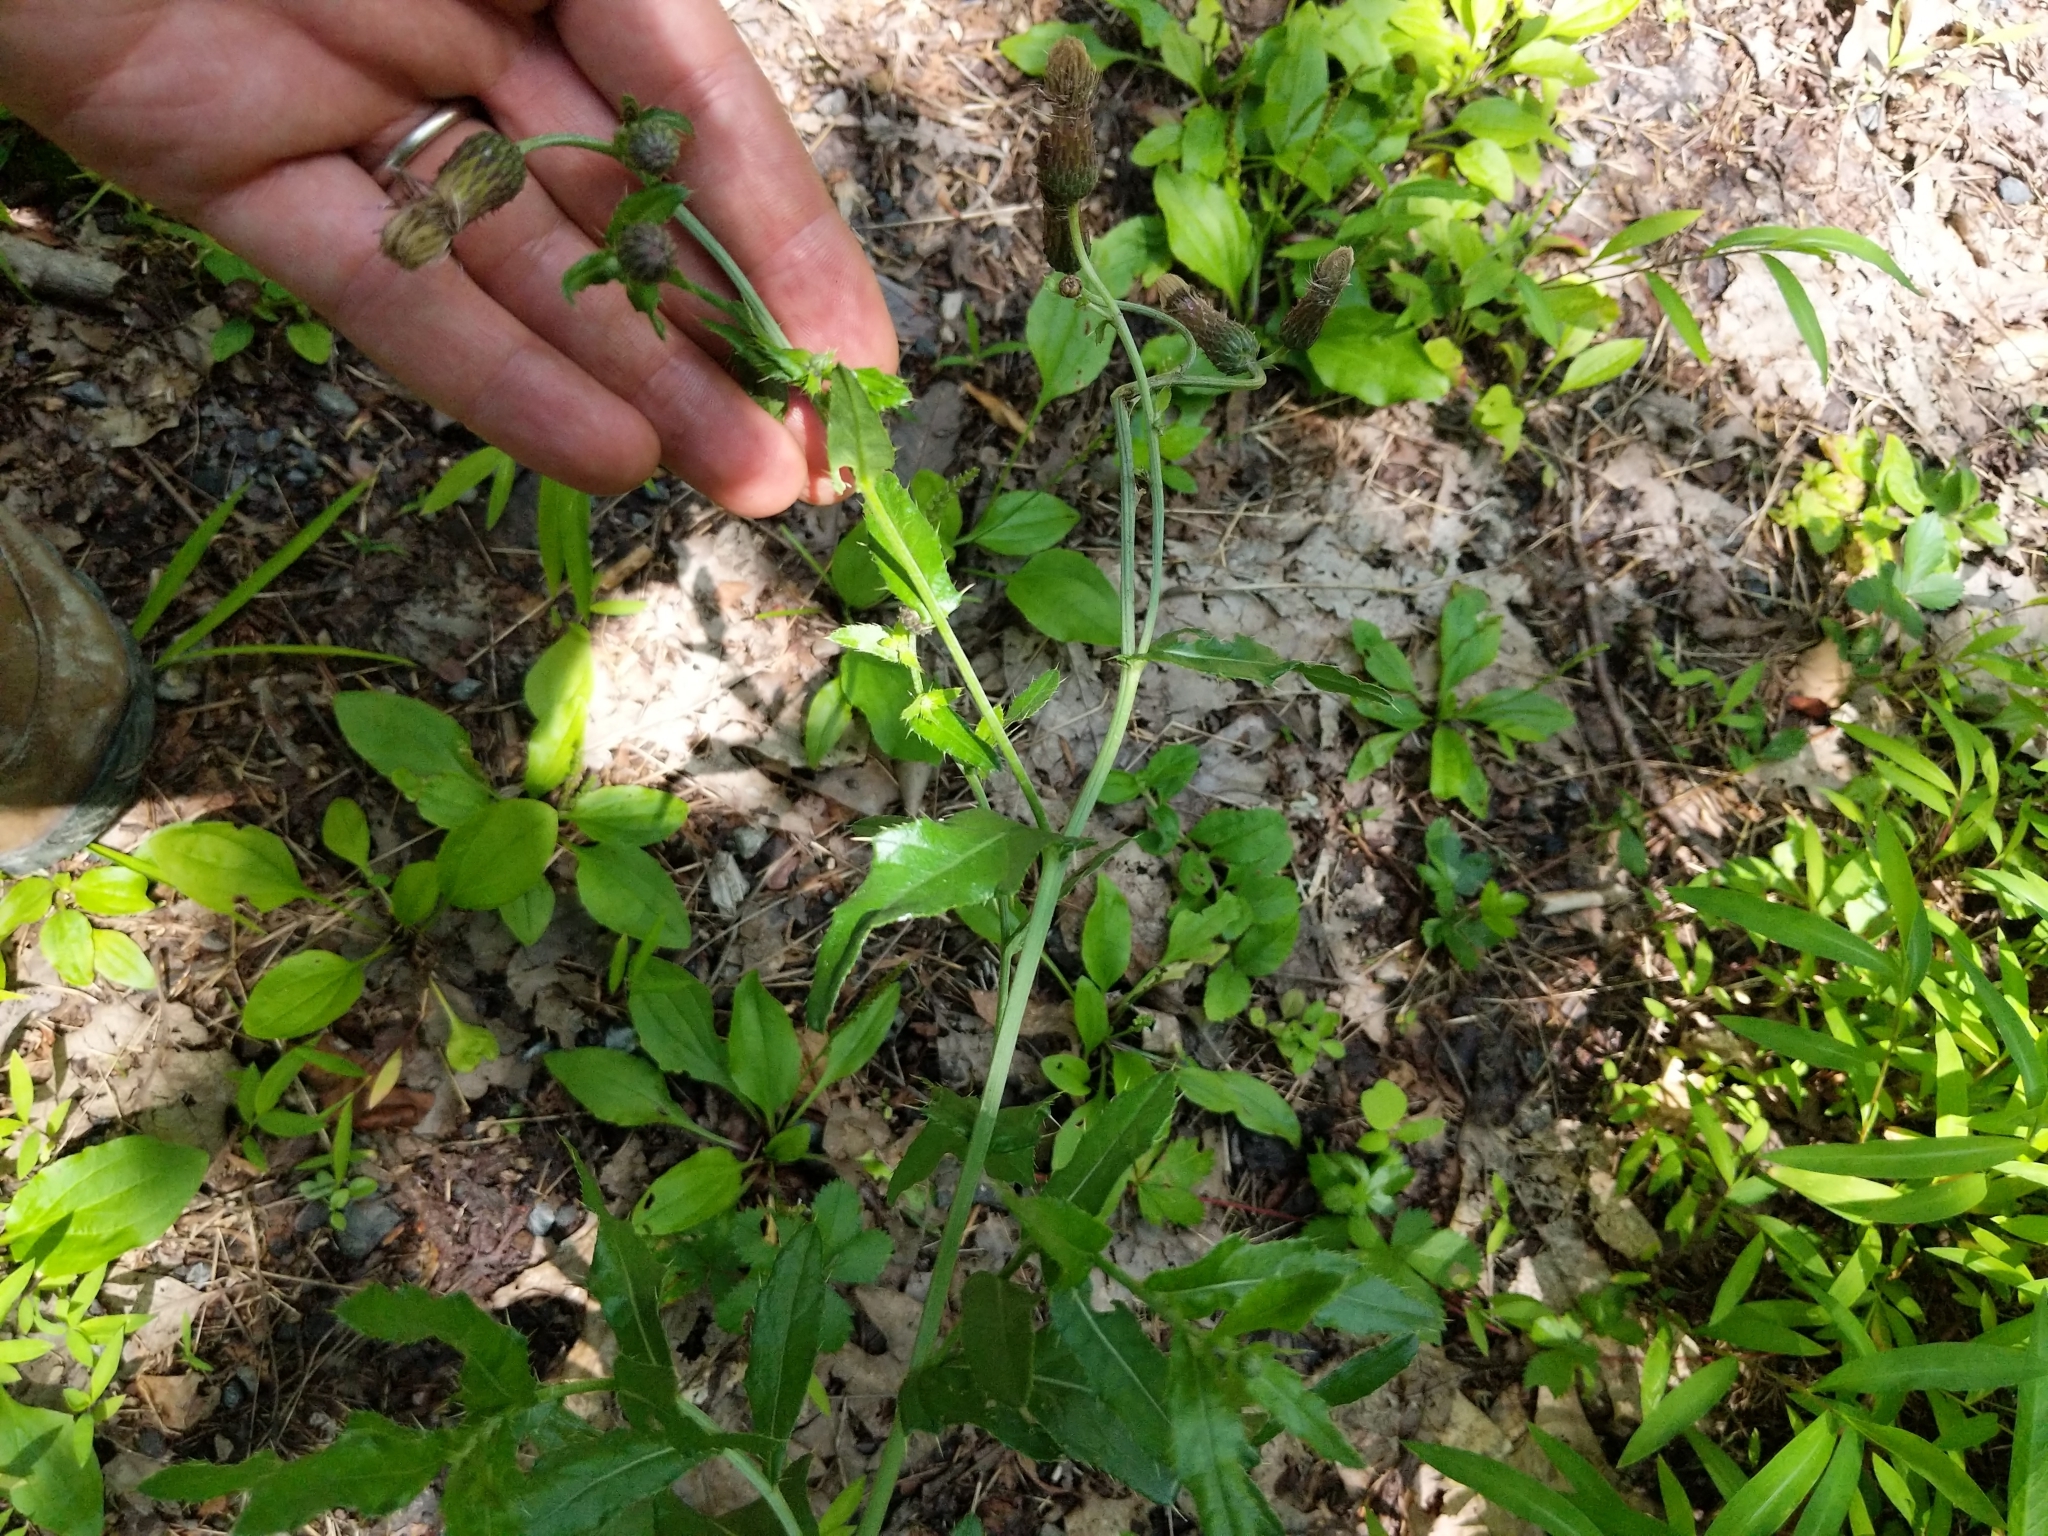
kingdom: Plantae
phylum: Tracheophyta
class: Magnoliopsida
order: Asterales
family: Asteraceae
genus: Cirsium
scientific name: Cirsium arvense
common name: Creeping thistle
